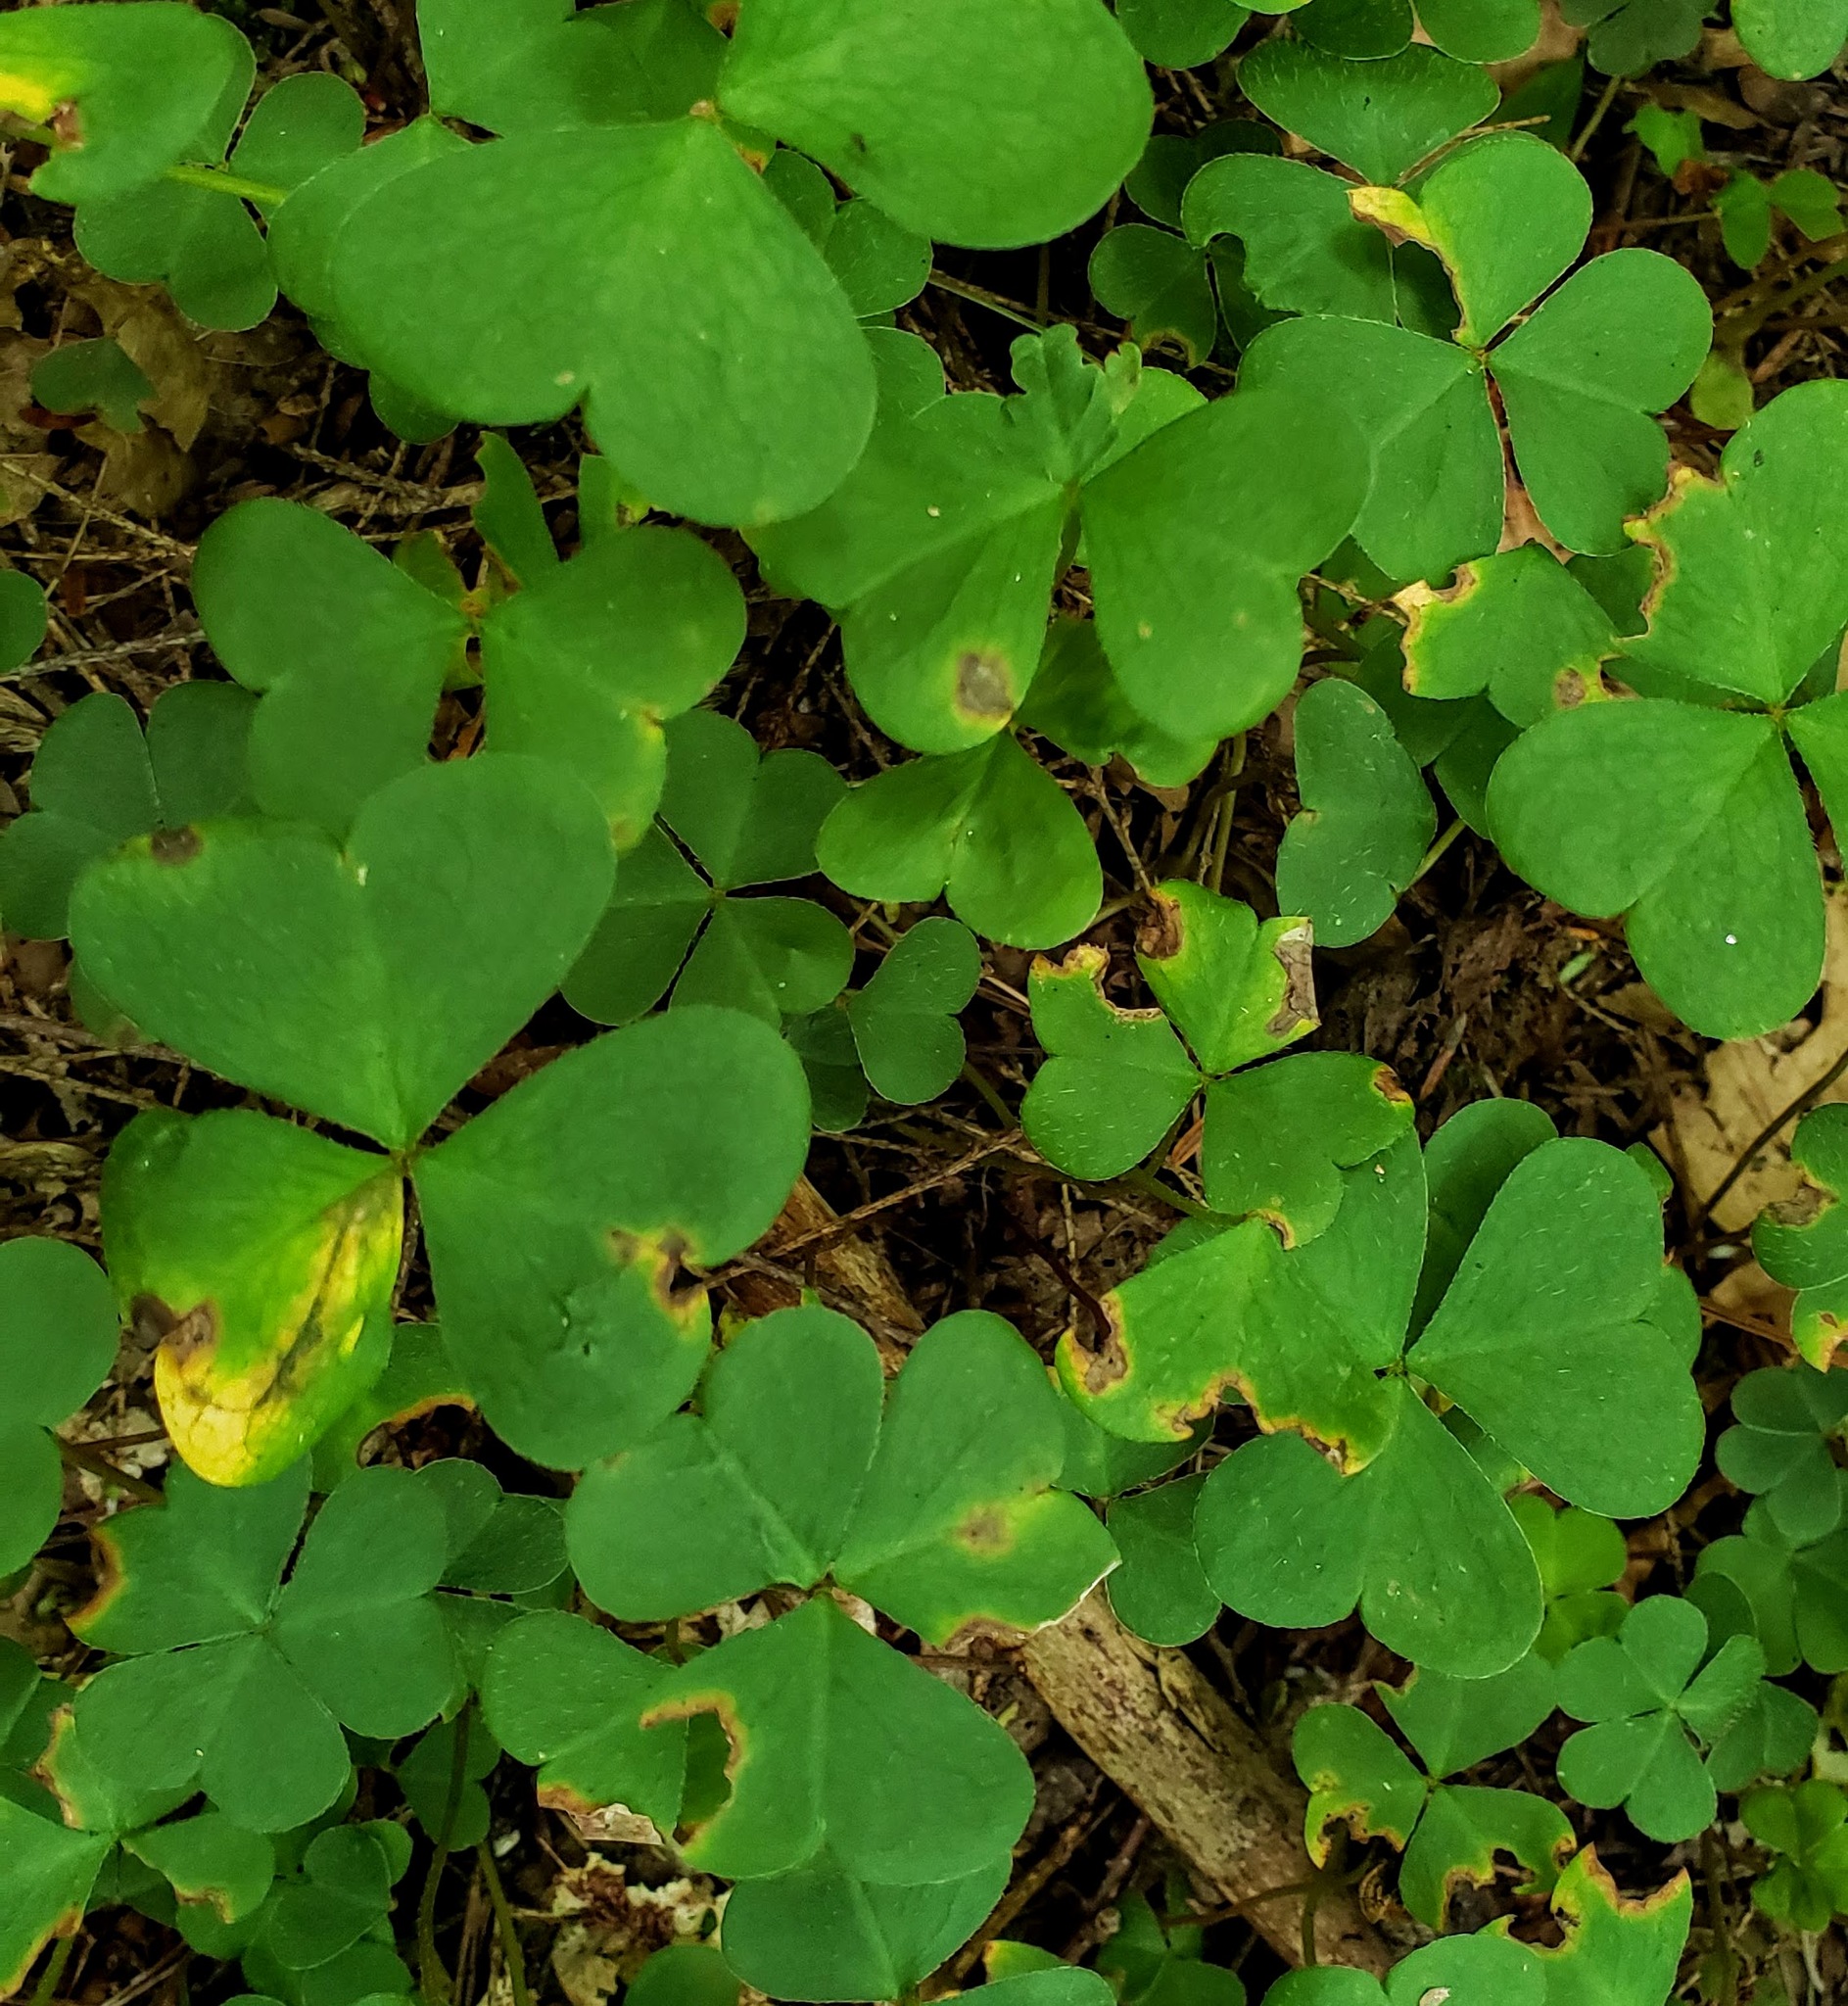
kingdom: Plantae
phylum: Tracheophyta
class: Magnoliopsida
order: Oxalidales
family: Oxalidaceae
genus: Oxalis
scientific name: Oxalis montana
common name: American wood-sorrel
